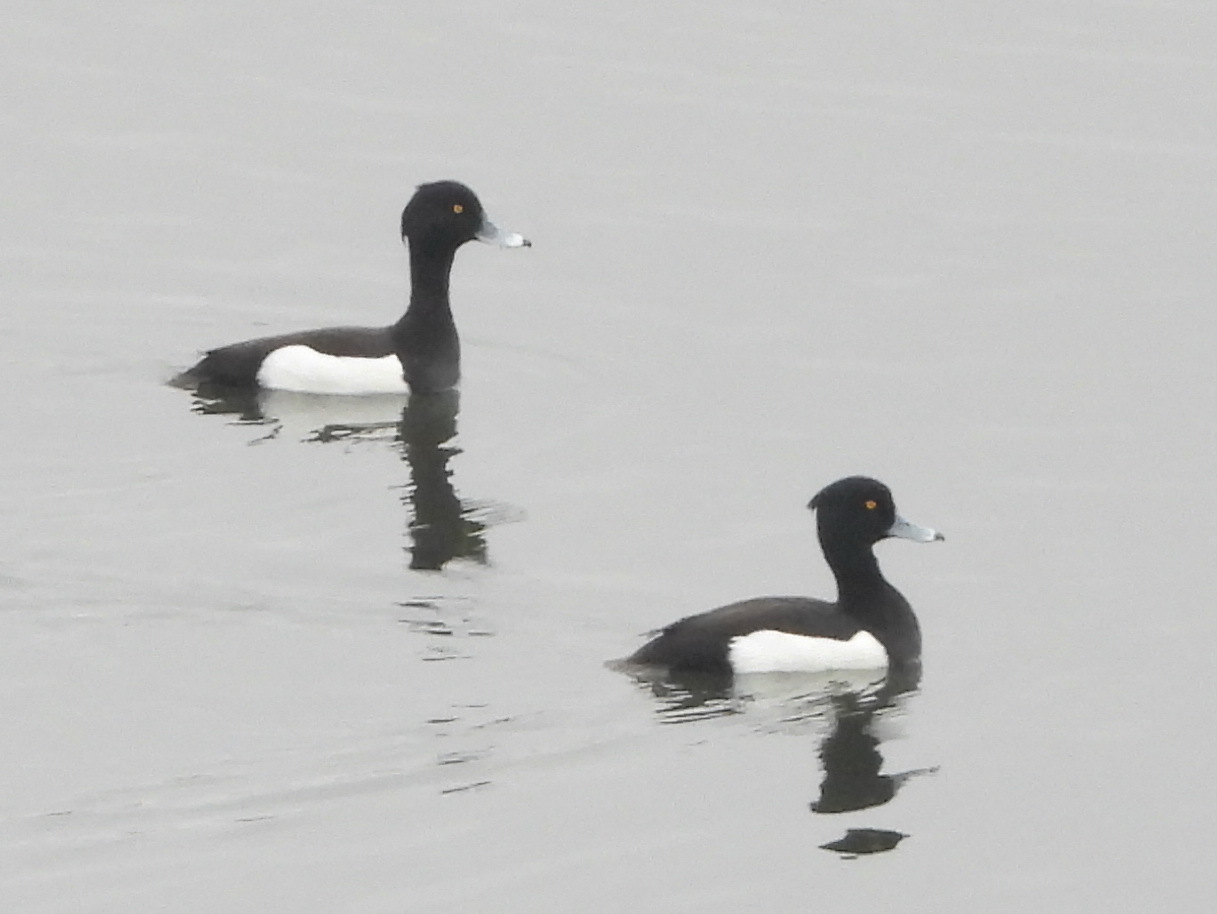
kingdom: Animalia
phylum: Chordata
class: Aves
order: Anseriformes
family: Anatidae
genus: Aythya
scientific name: Aythya fuligula
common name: Tufted duck
